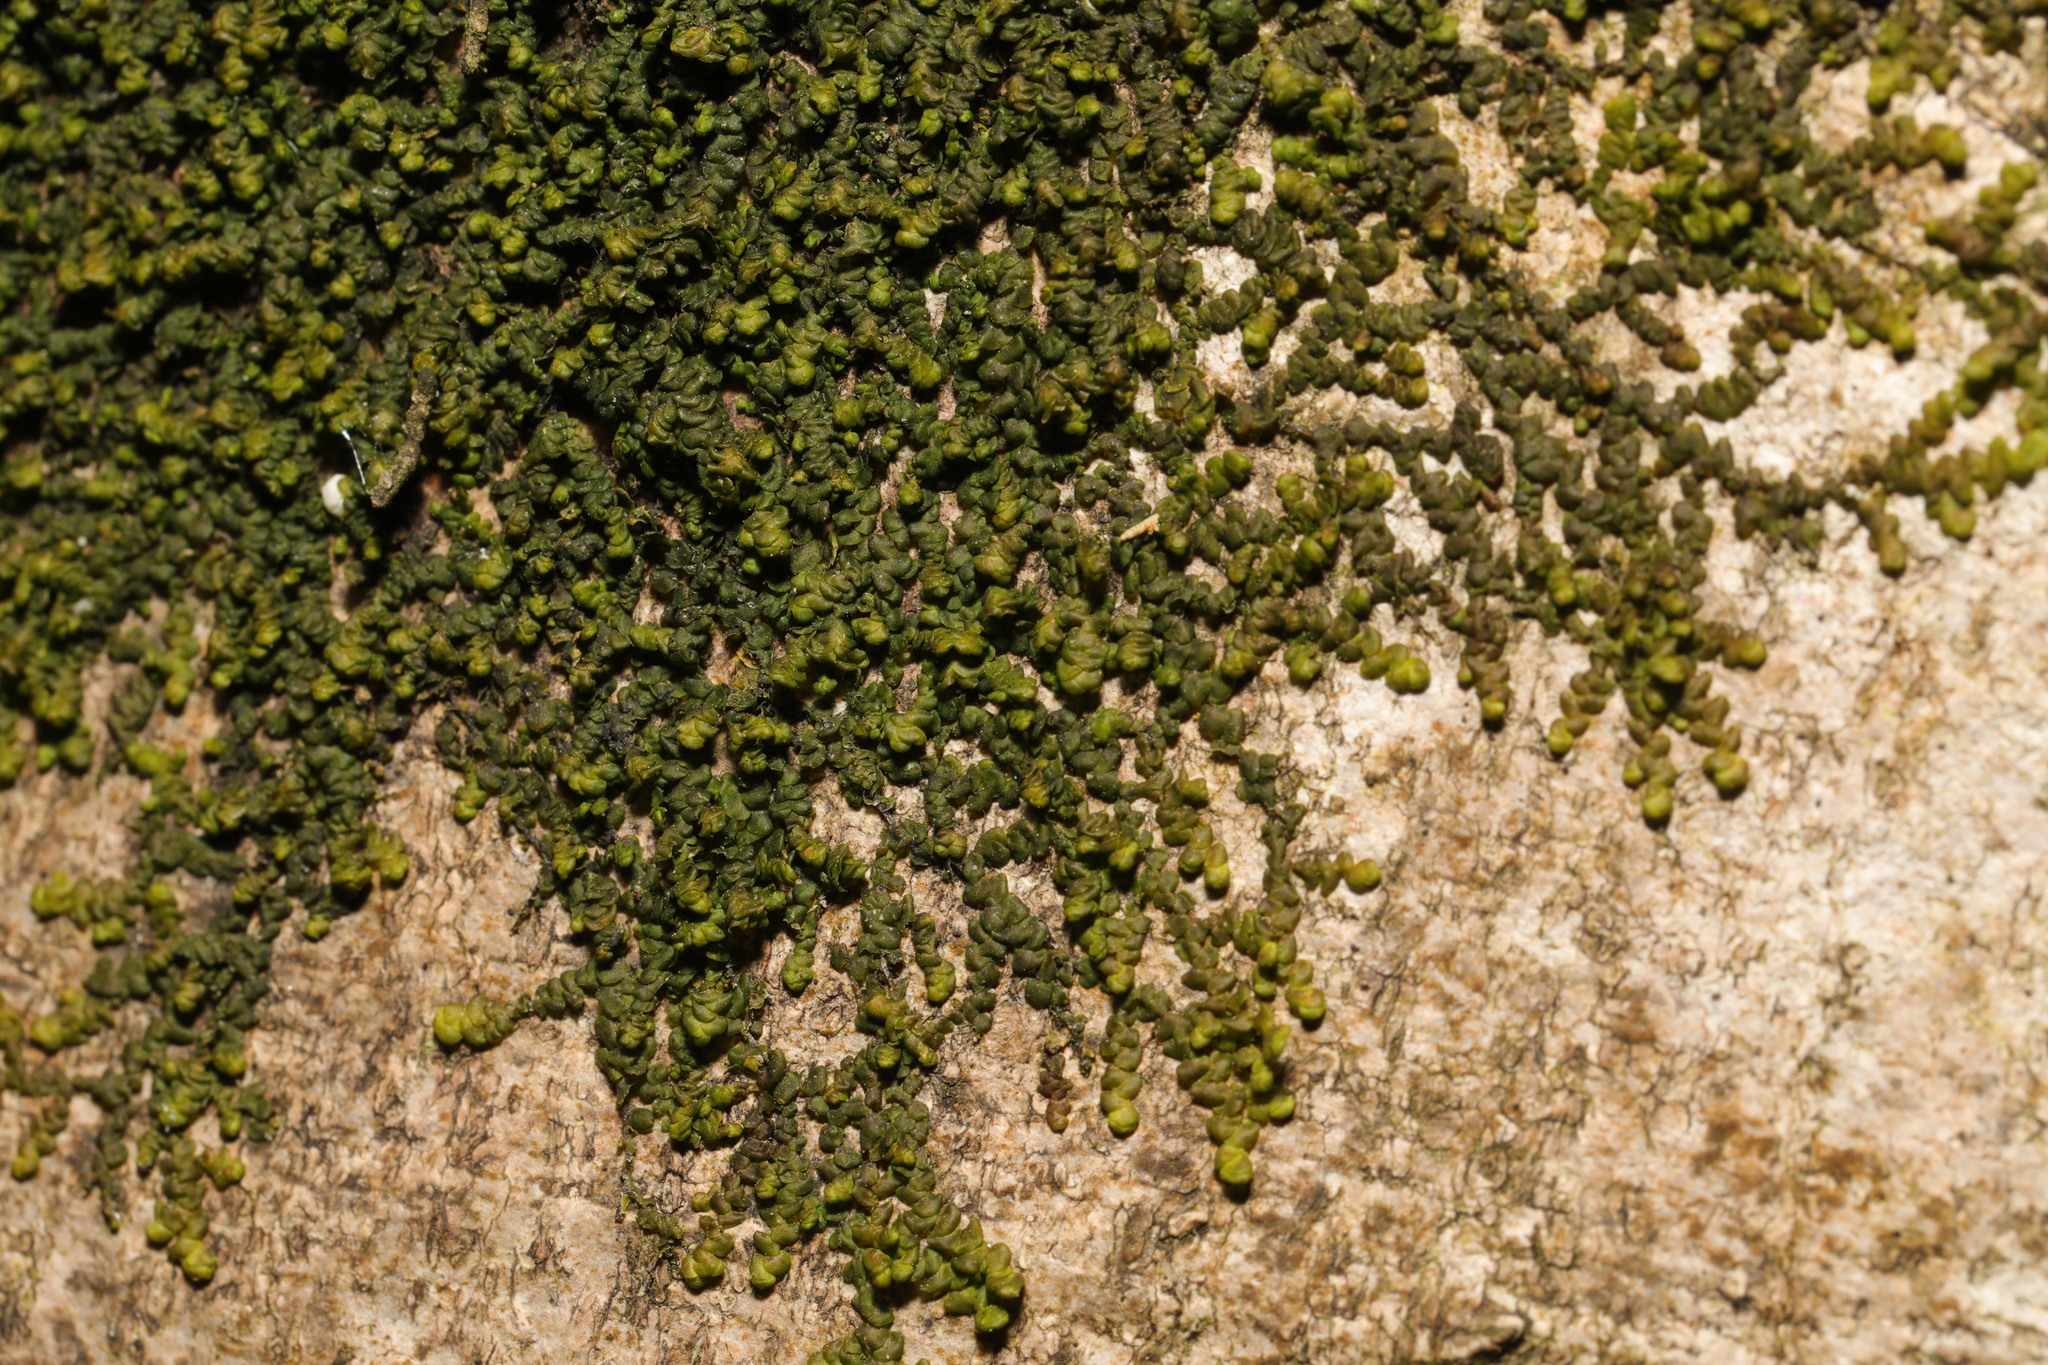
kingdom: Plantae
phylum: Marchantiophyta
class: Jungermanniopsida
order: Porellales
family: Frullaniaceae
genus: Frullania
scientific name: Frullania dilatata
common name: Dilated scalewort
